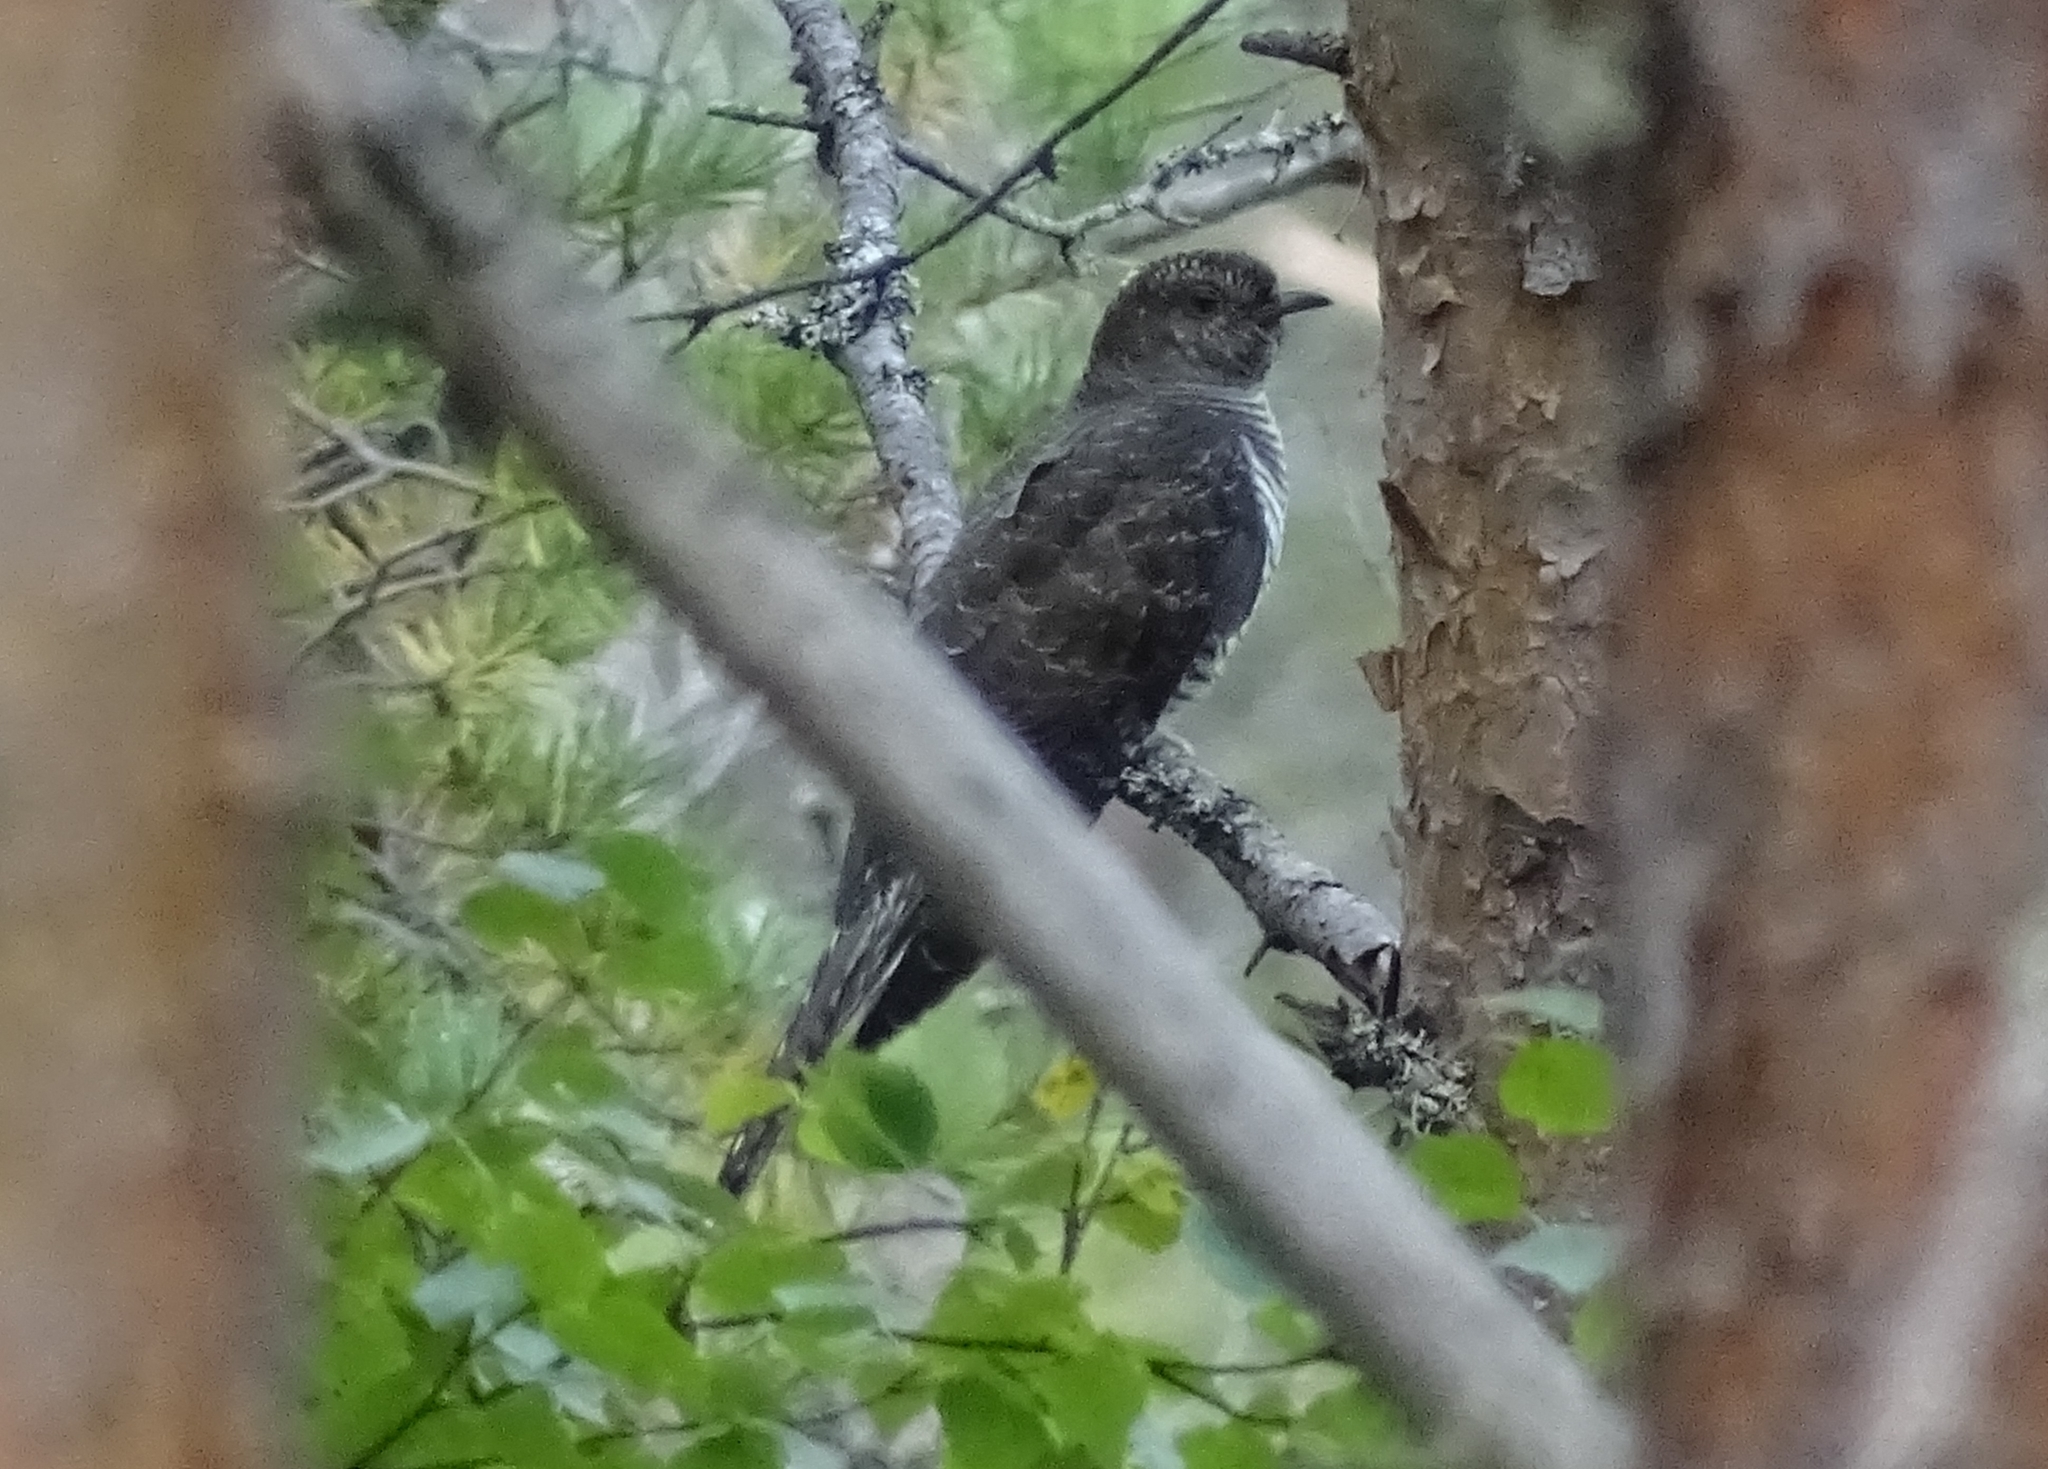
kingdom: Animalia
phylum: Chordata
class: Aves
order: Cuculiformes
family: Cuculidae
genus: Cuculus
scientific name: Cuculus canorus
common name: Common cuckoo
